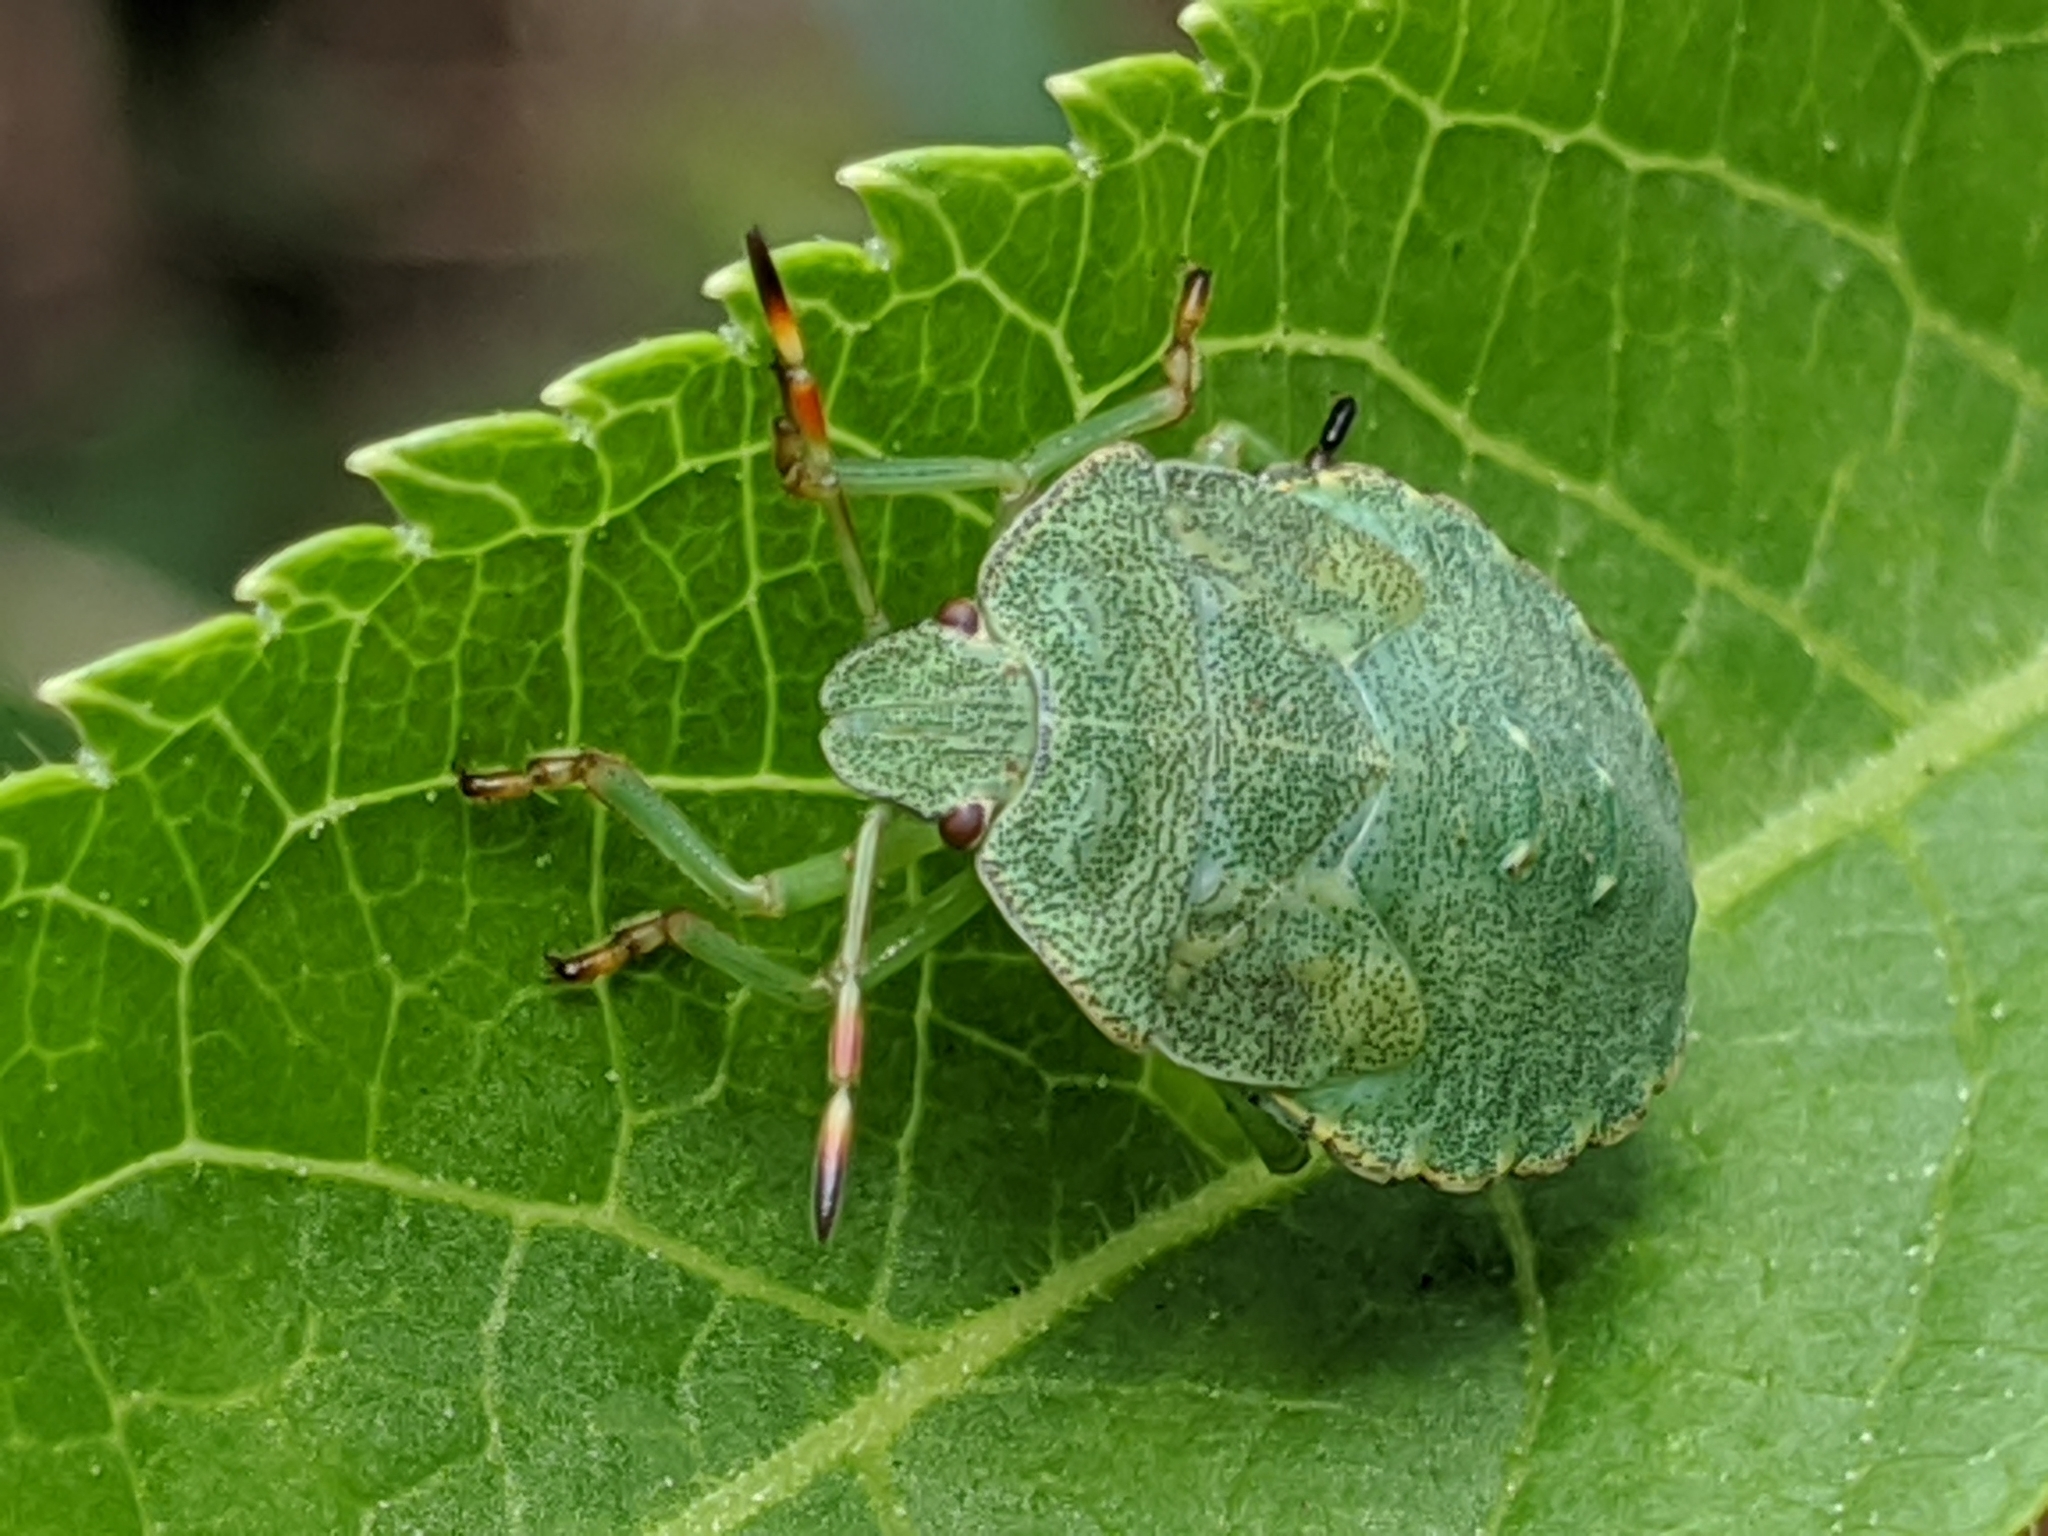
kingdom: Animalia
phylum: Arthropoda
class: Insecta
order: Hemiptera
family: Pentatomidae
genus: Palomena
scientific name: Palomena prasina
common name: Green shieldbug
